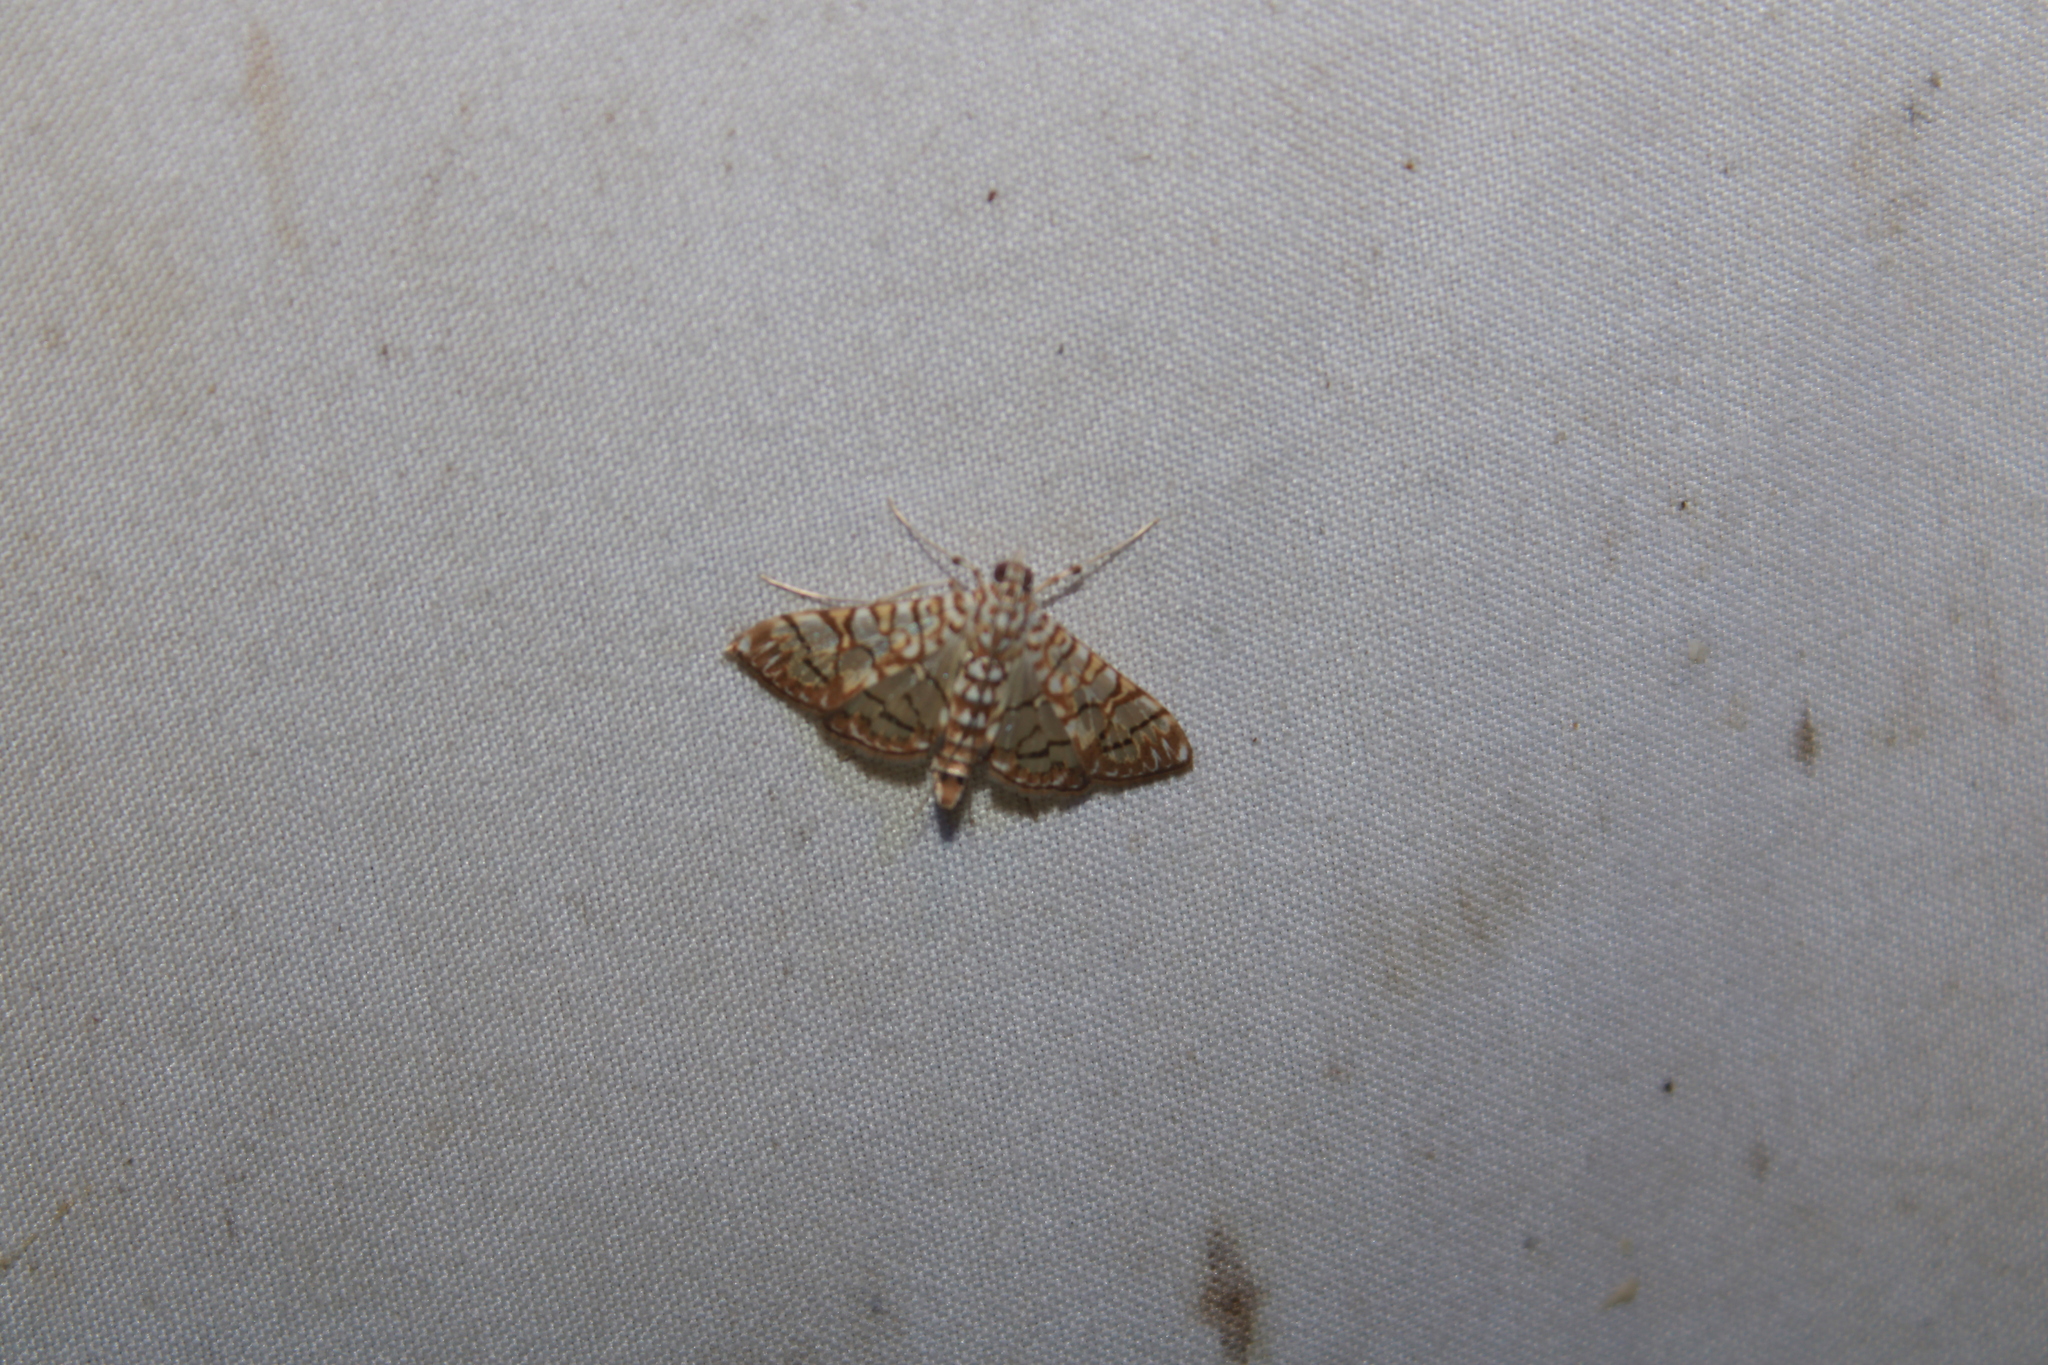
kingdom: Animalia
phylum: Arthropoda
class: Insecta
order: Lepidoptera
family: Crambidae
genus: Synclera
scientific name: Synclera traducalis
